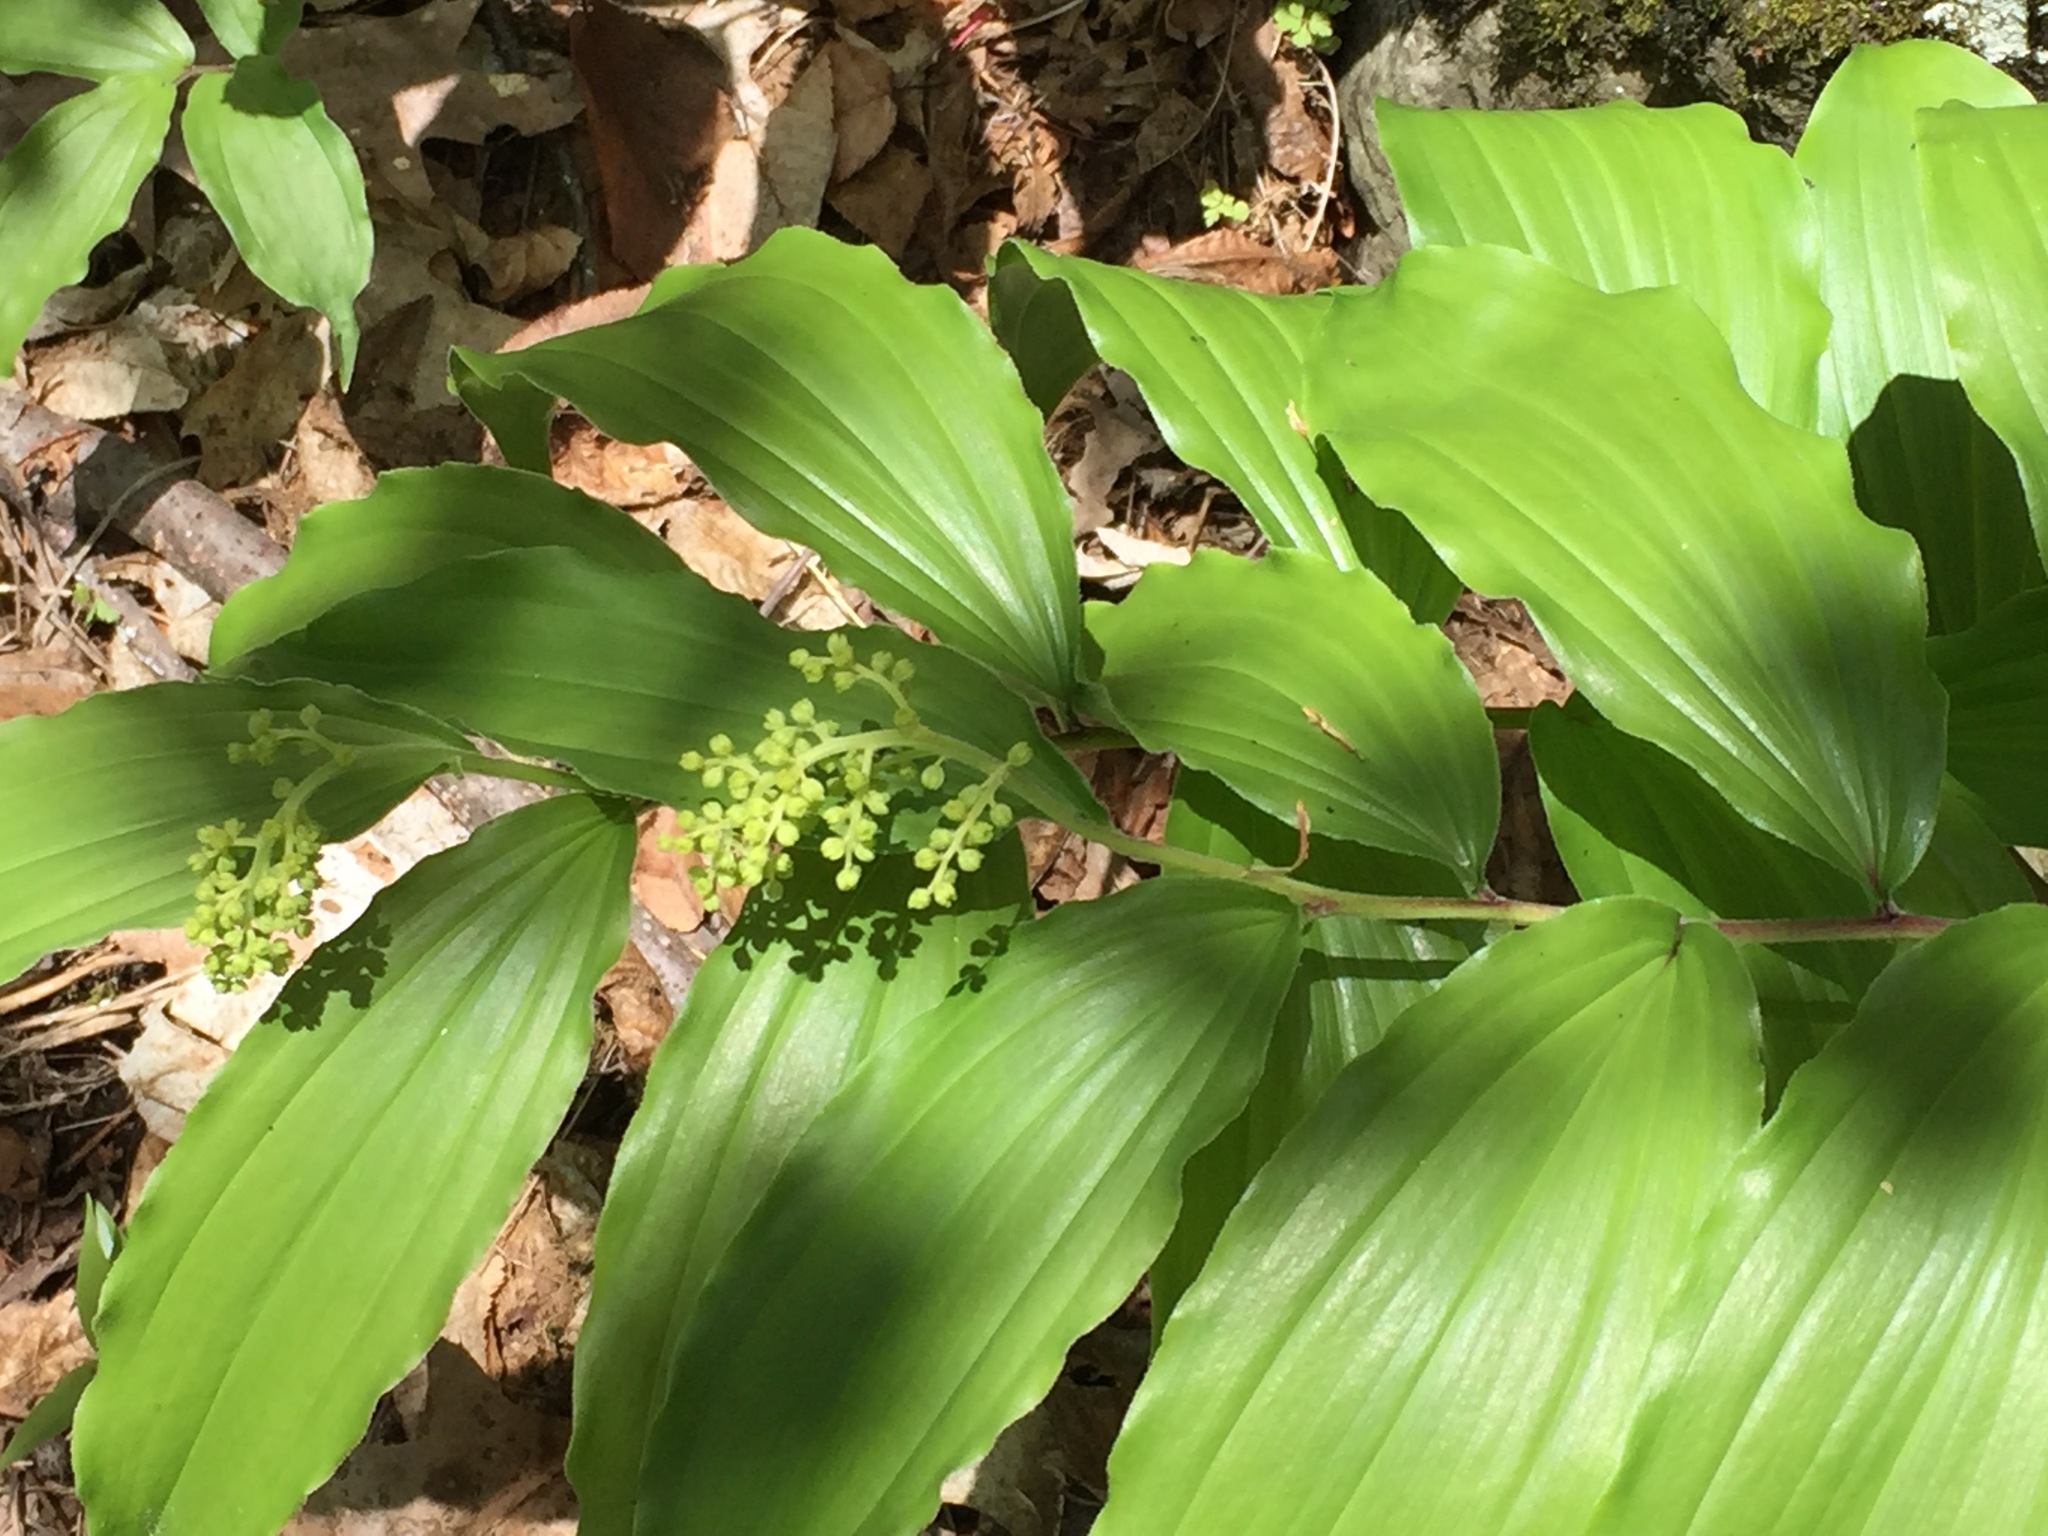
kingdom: Plantae
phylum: Tracheophyta
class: Liliopsida
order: Asparagales
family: Asparagaceae
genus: Maianthemum
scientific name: Maianthemum racemosum
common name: False spikenard
